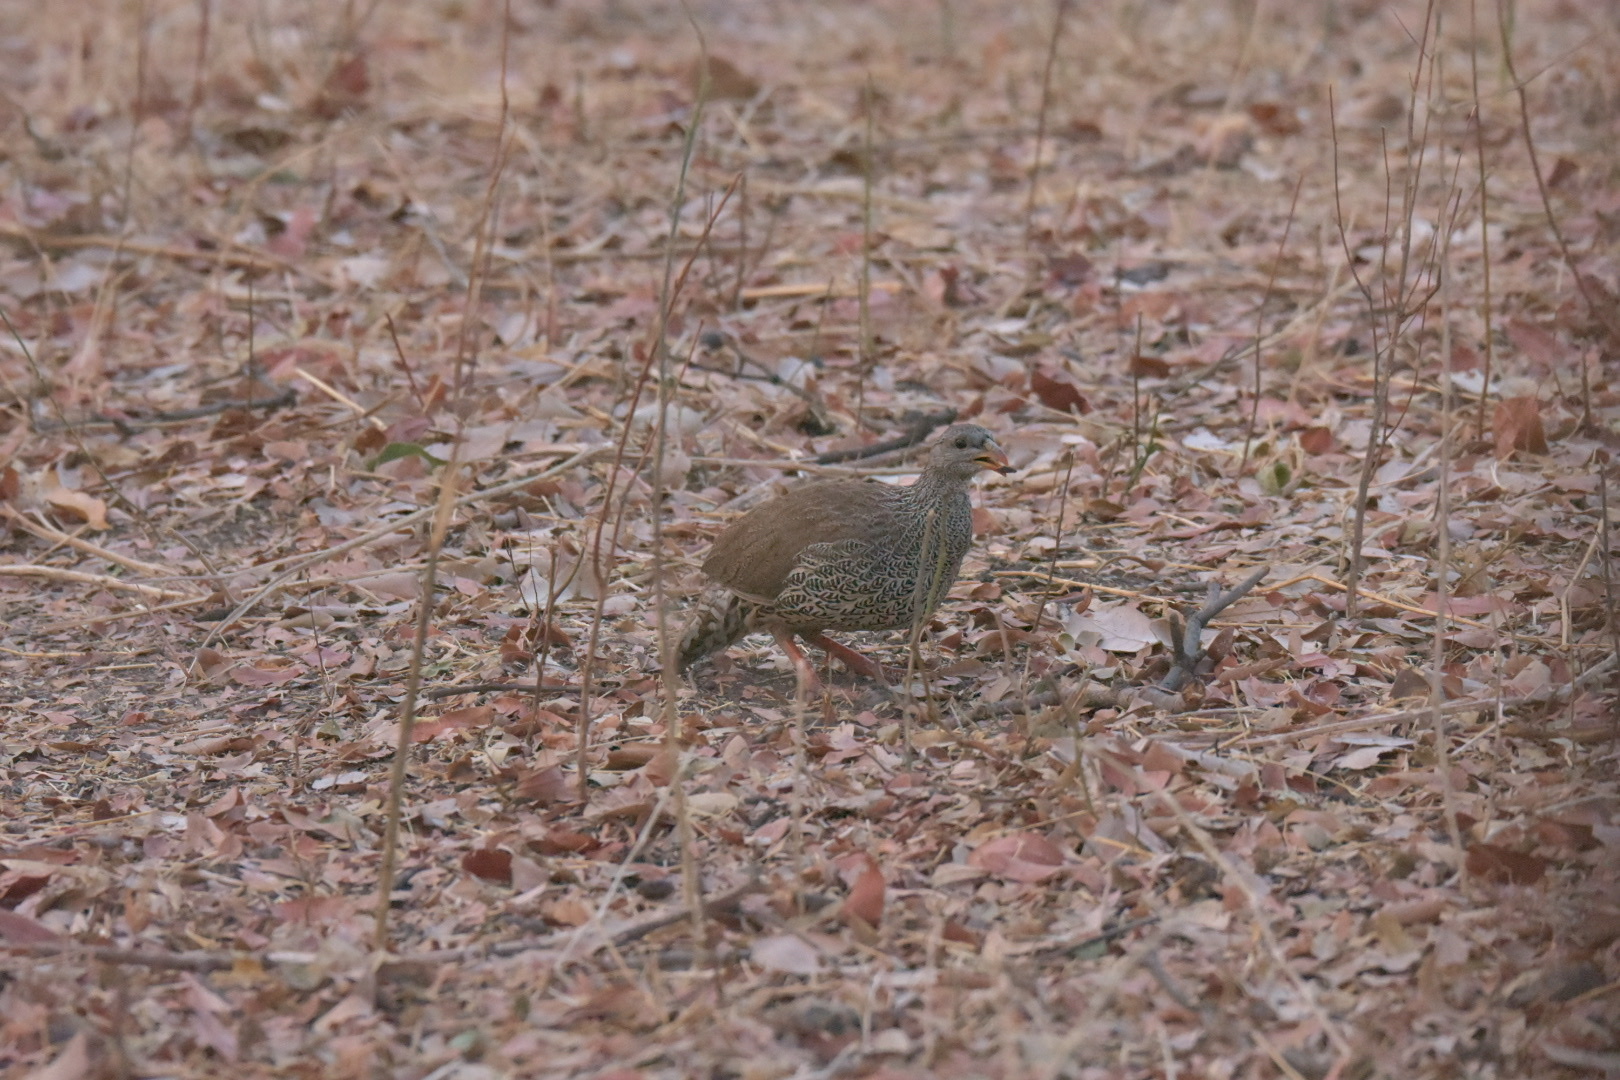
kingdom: Animalia
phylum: Chordata
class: Aves
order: Galliformes
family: Phasianidae
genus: Pternistis
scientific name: Pternistis natalensis
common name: Natal spurfowl
